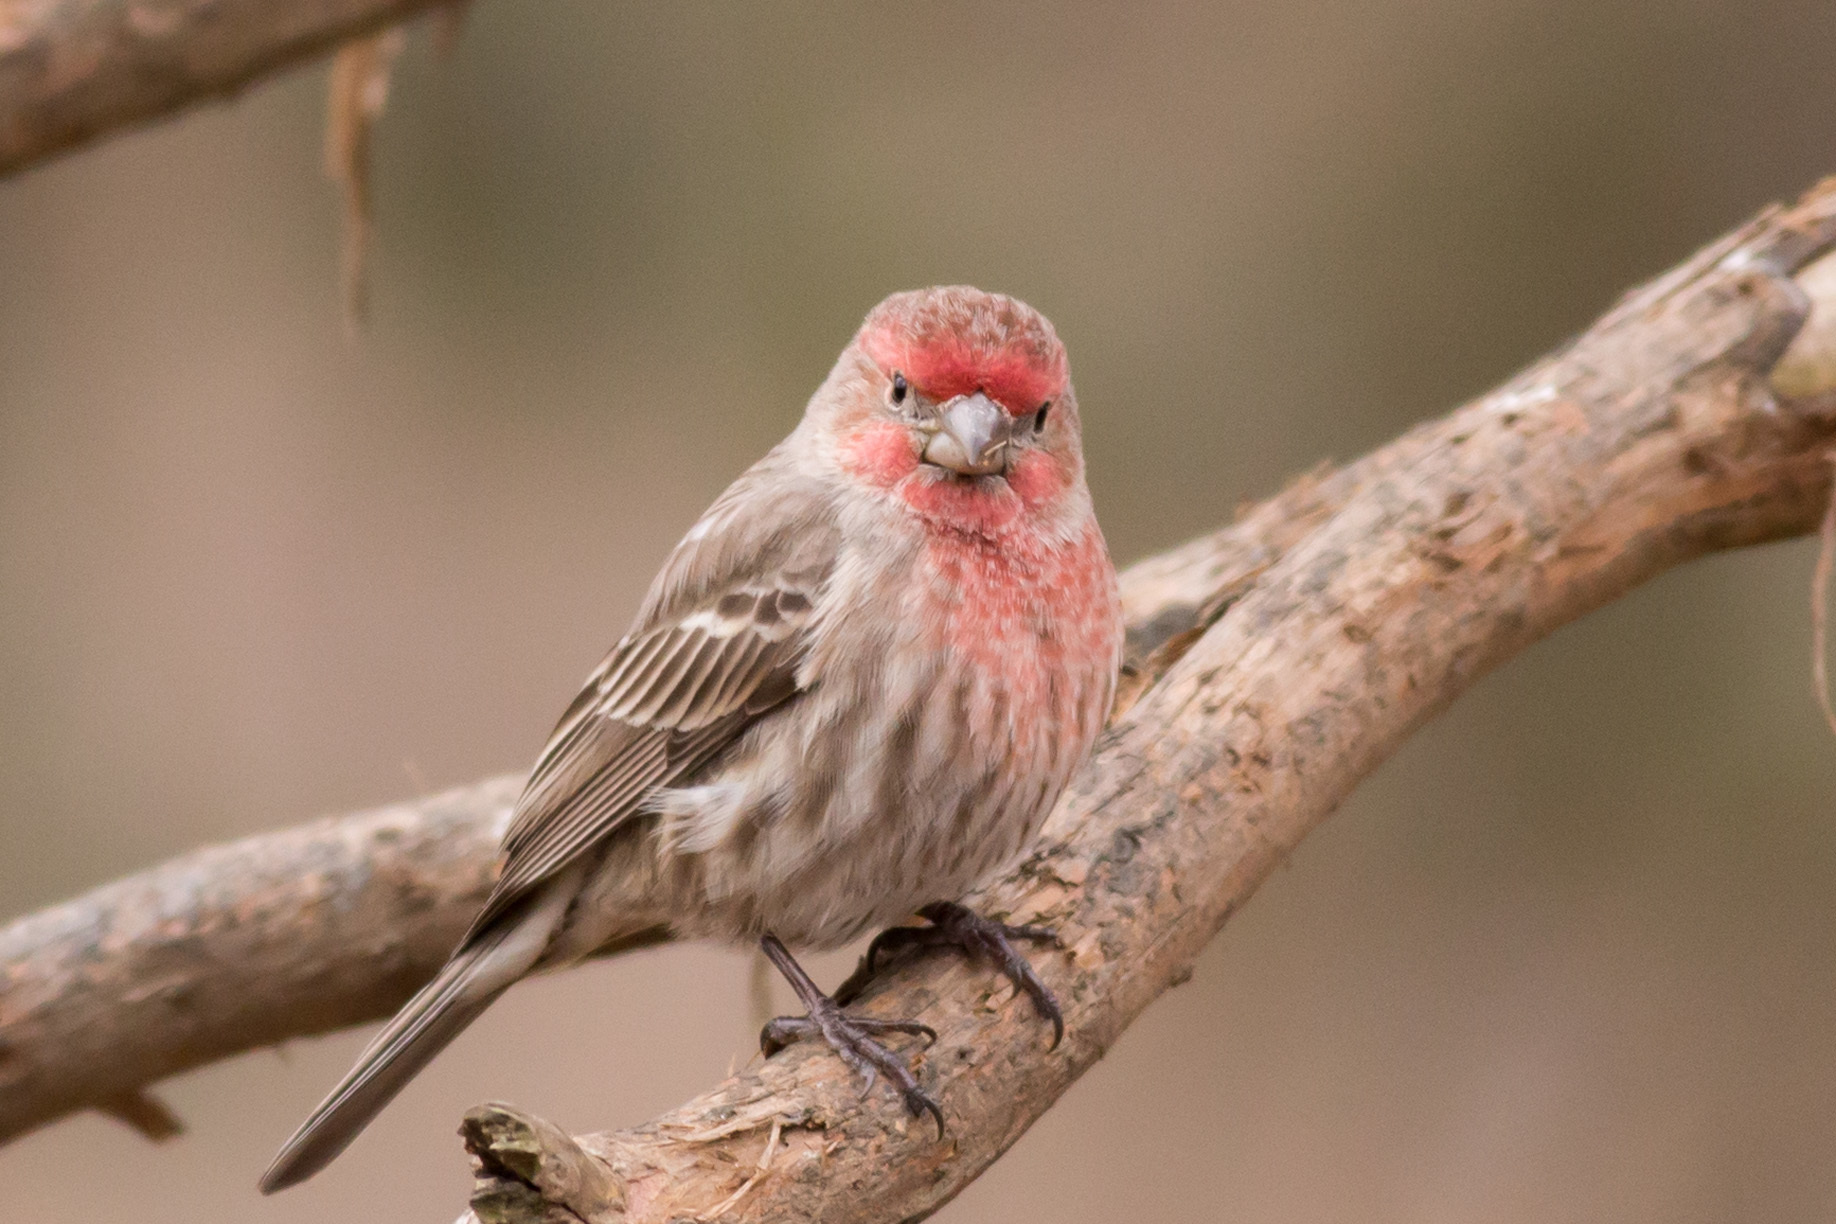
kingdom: Animalia
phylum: Chordata
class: Aves
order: Passeriformes
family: Fringillidae
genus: Haemorhous
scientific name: Haemorhous mexicanus
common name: House finch
